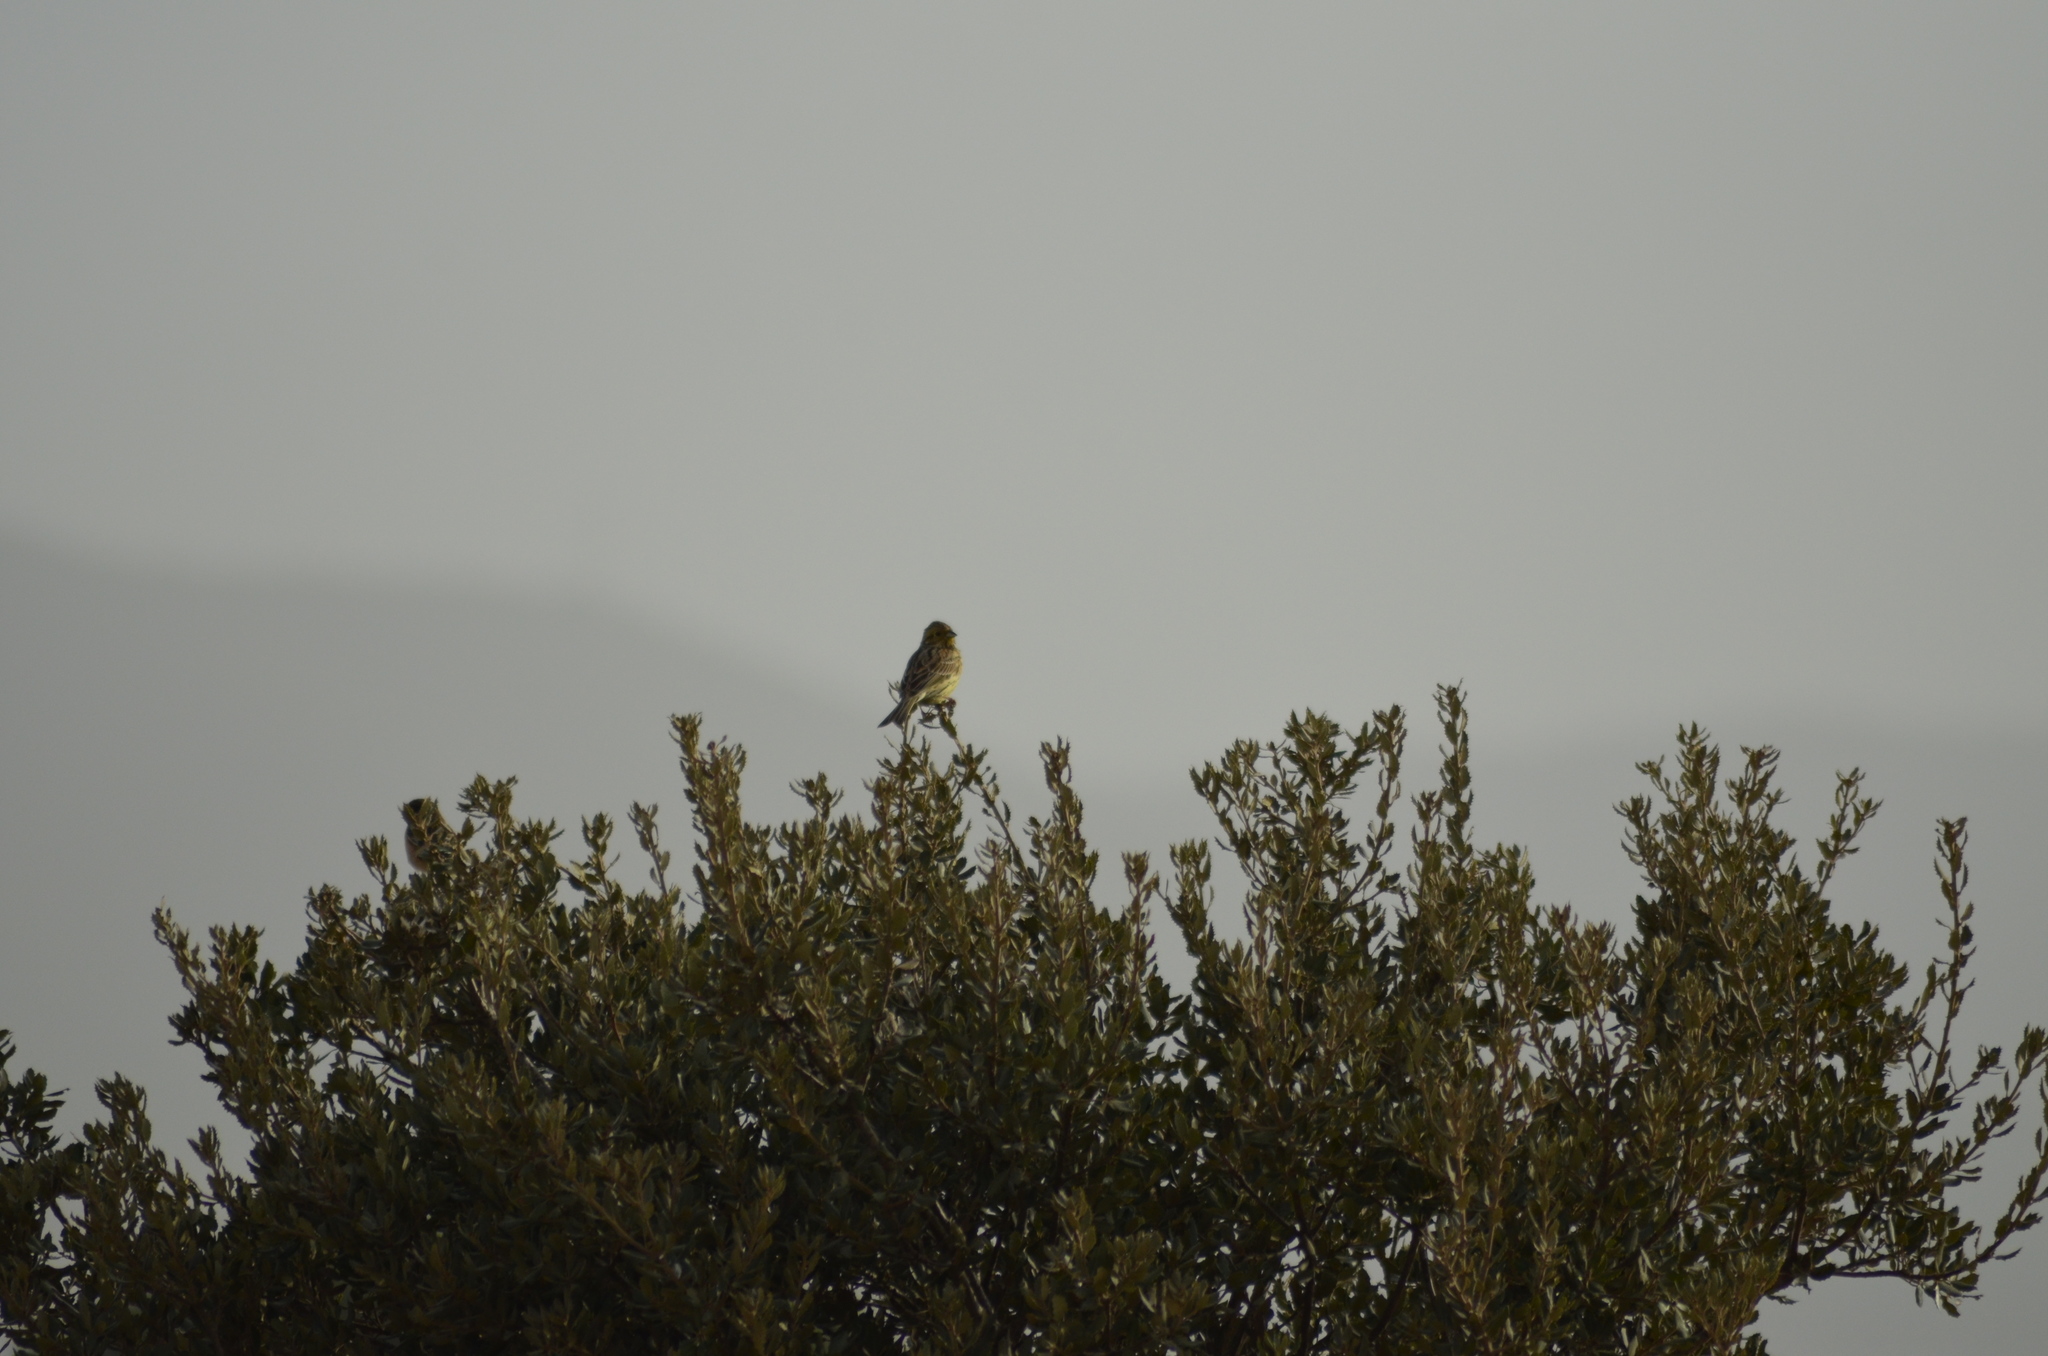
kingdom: Animalia
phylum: Chordata
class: Aves
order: Passeriformes
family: Emberizidae
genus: Emberiza
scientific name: Emberiza cirlus
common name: Cirl bunting
